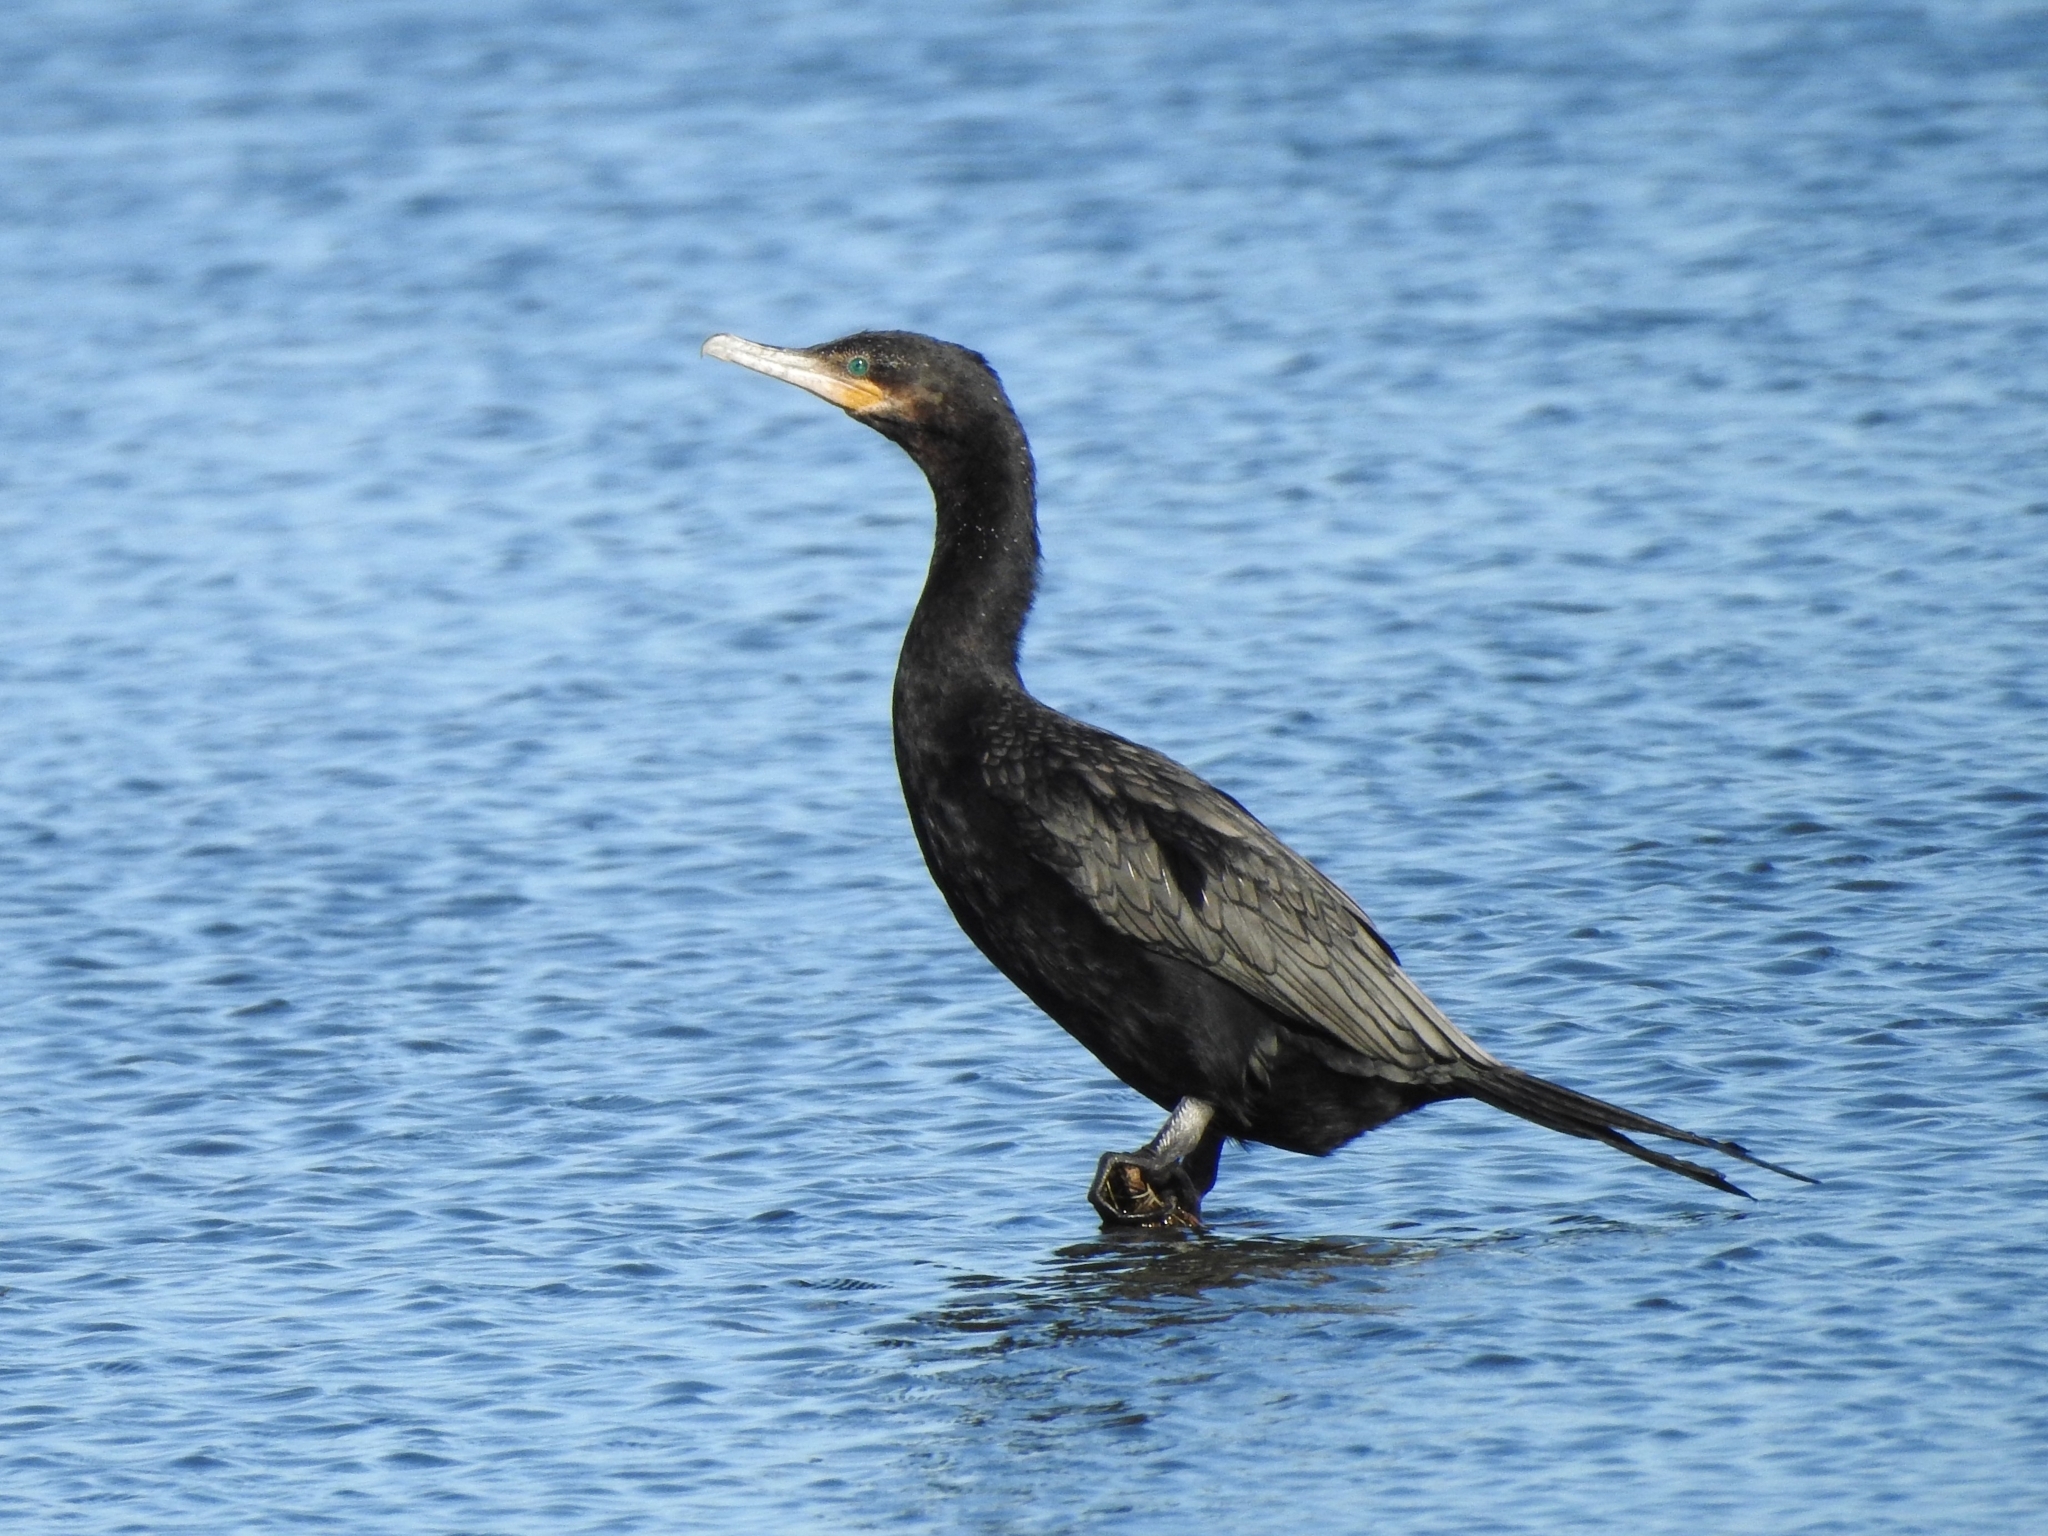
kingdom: Animalia
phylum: Chordata
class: Aves
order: Suliformes
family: Phalacrocoracidae
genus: Phalacrocorax
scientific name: Phalacrocorax brasilianus
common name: Neotropic cormorant
